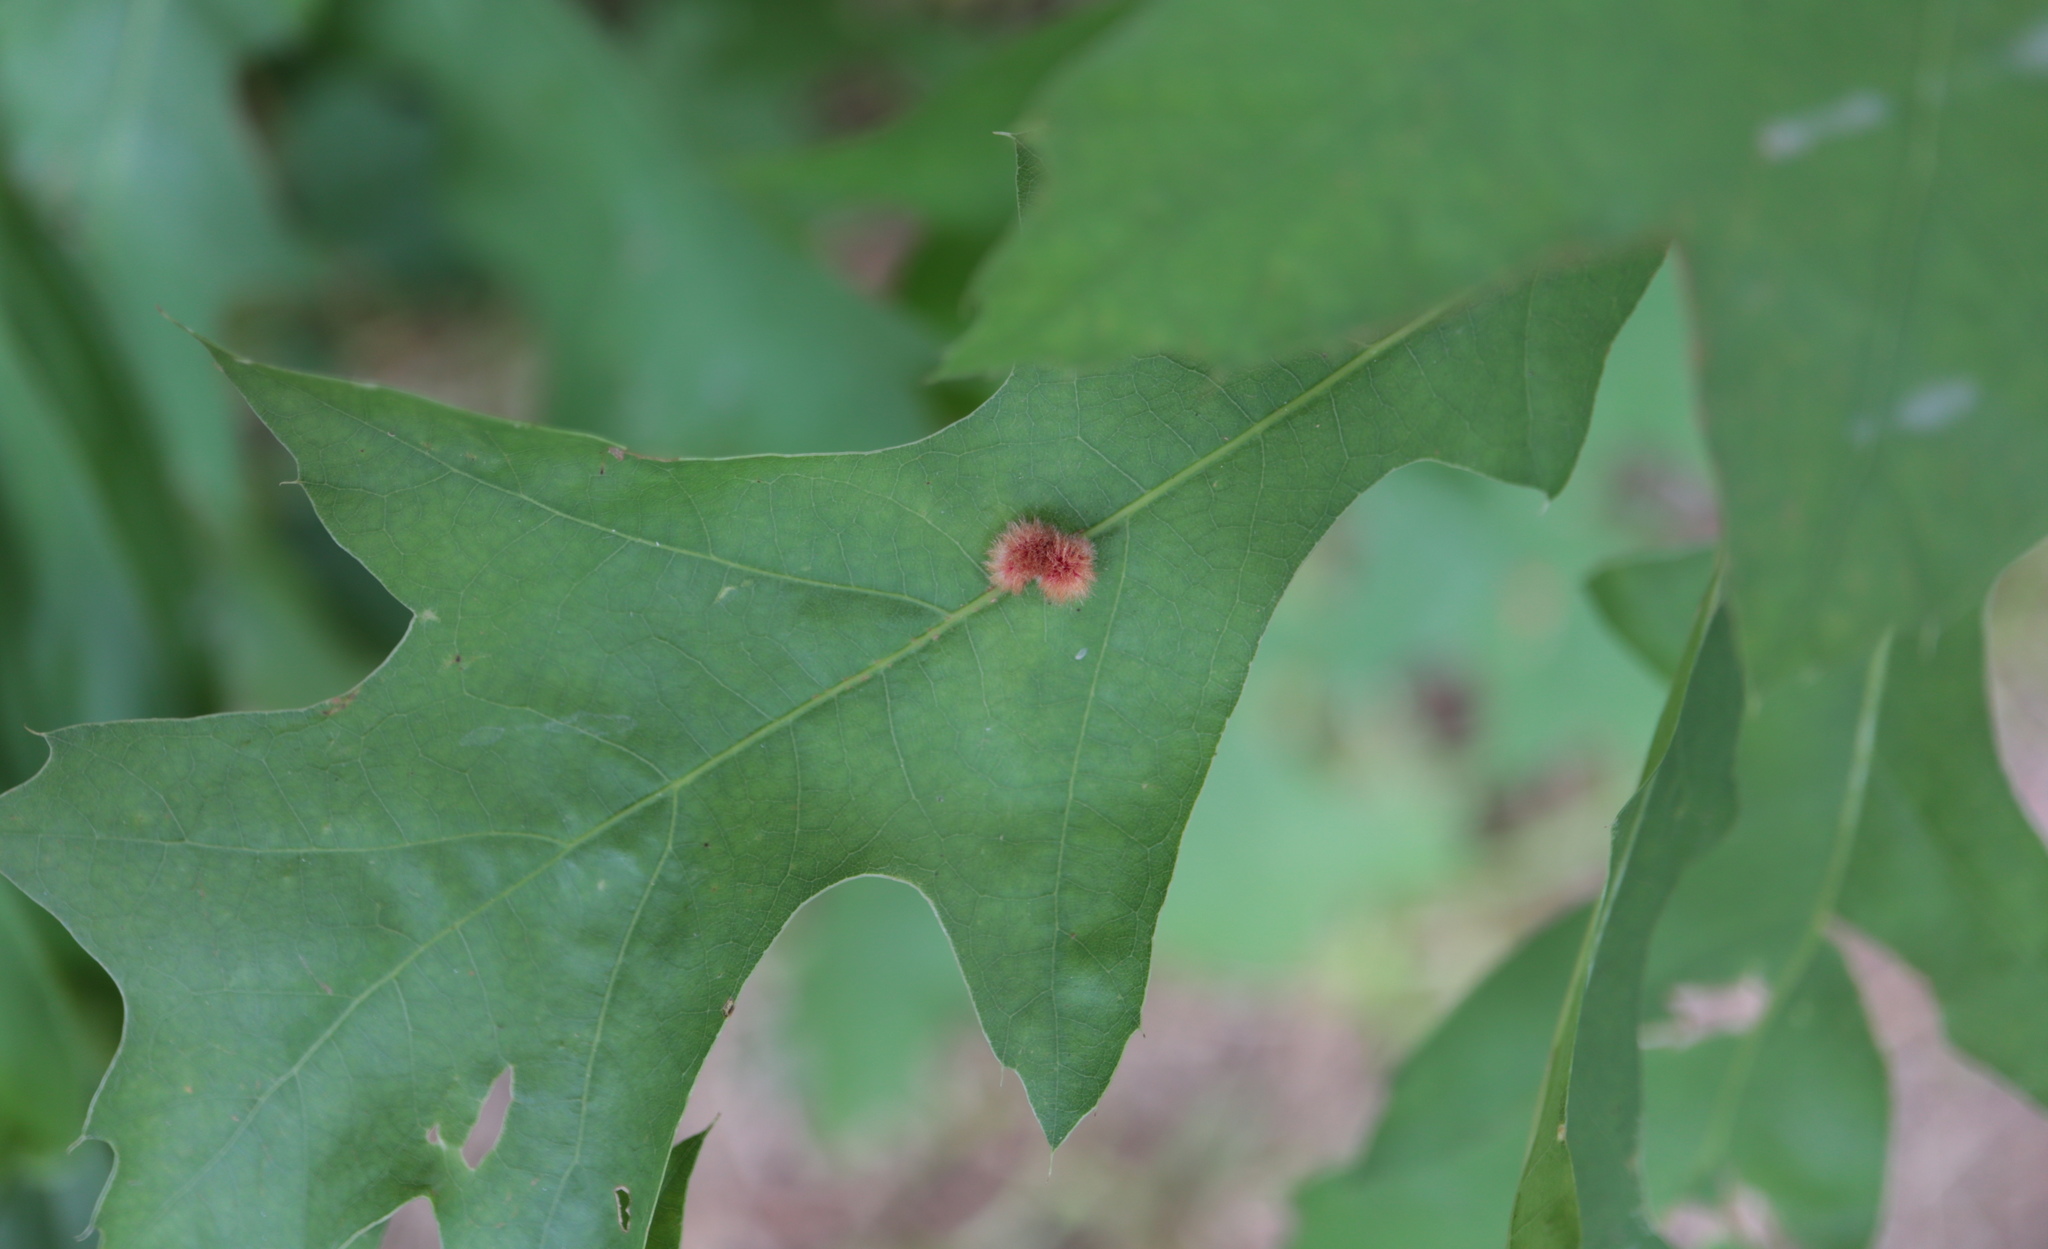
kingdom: Animalia
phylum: Arthropoda
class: Insecta
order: Hymenoptera
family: Cynipidae
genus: Callirhytis
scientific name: Callirhytis
